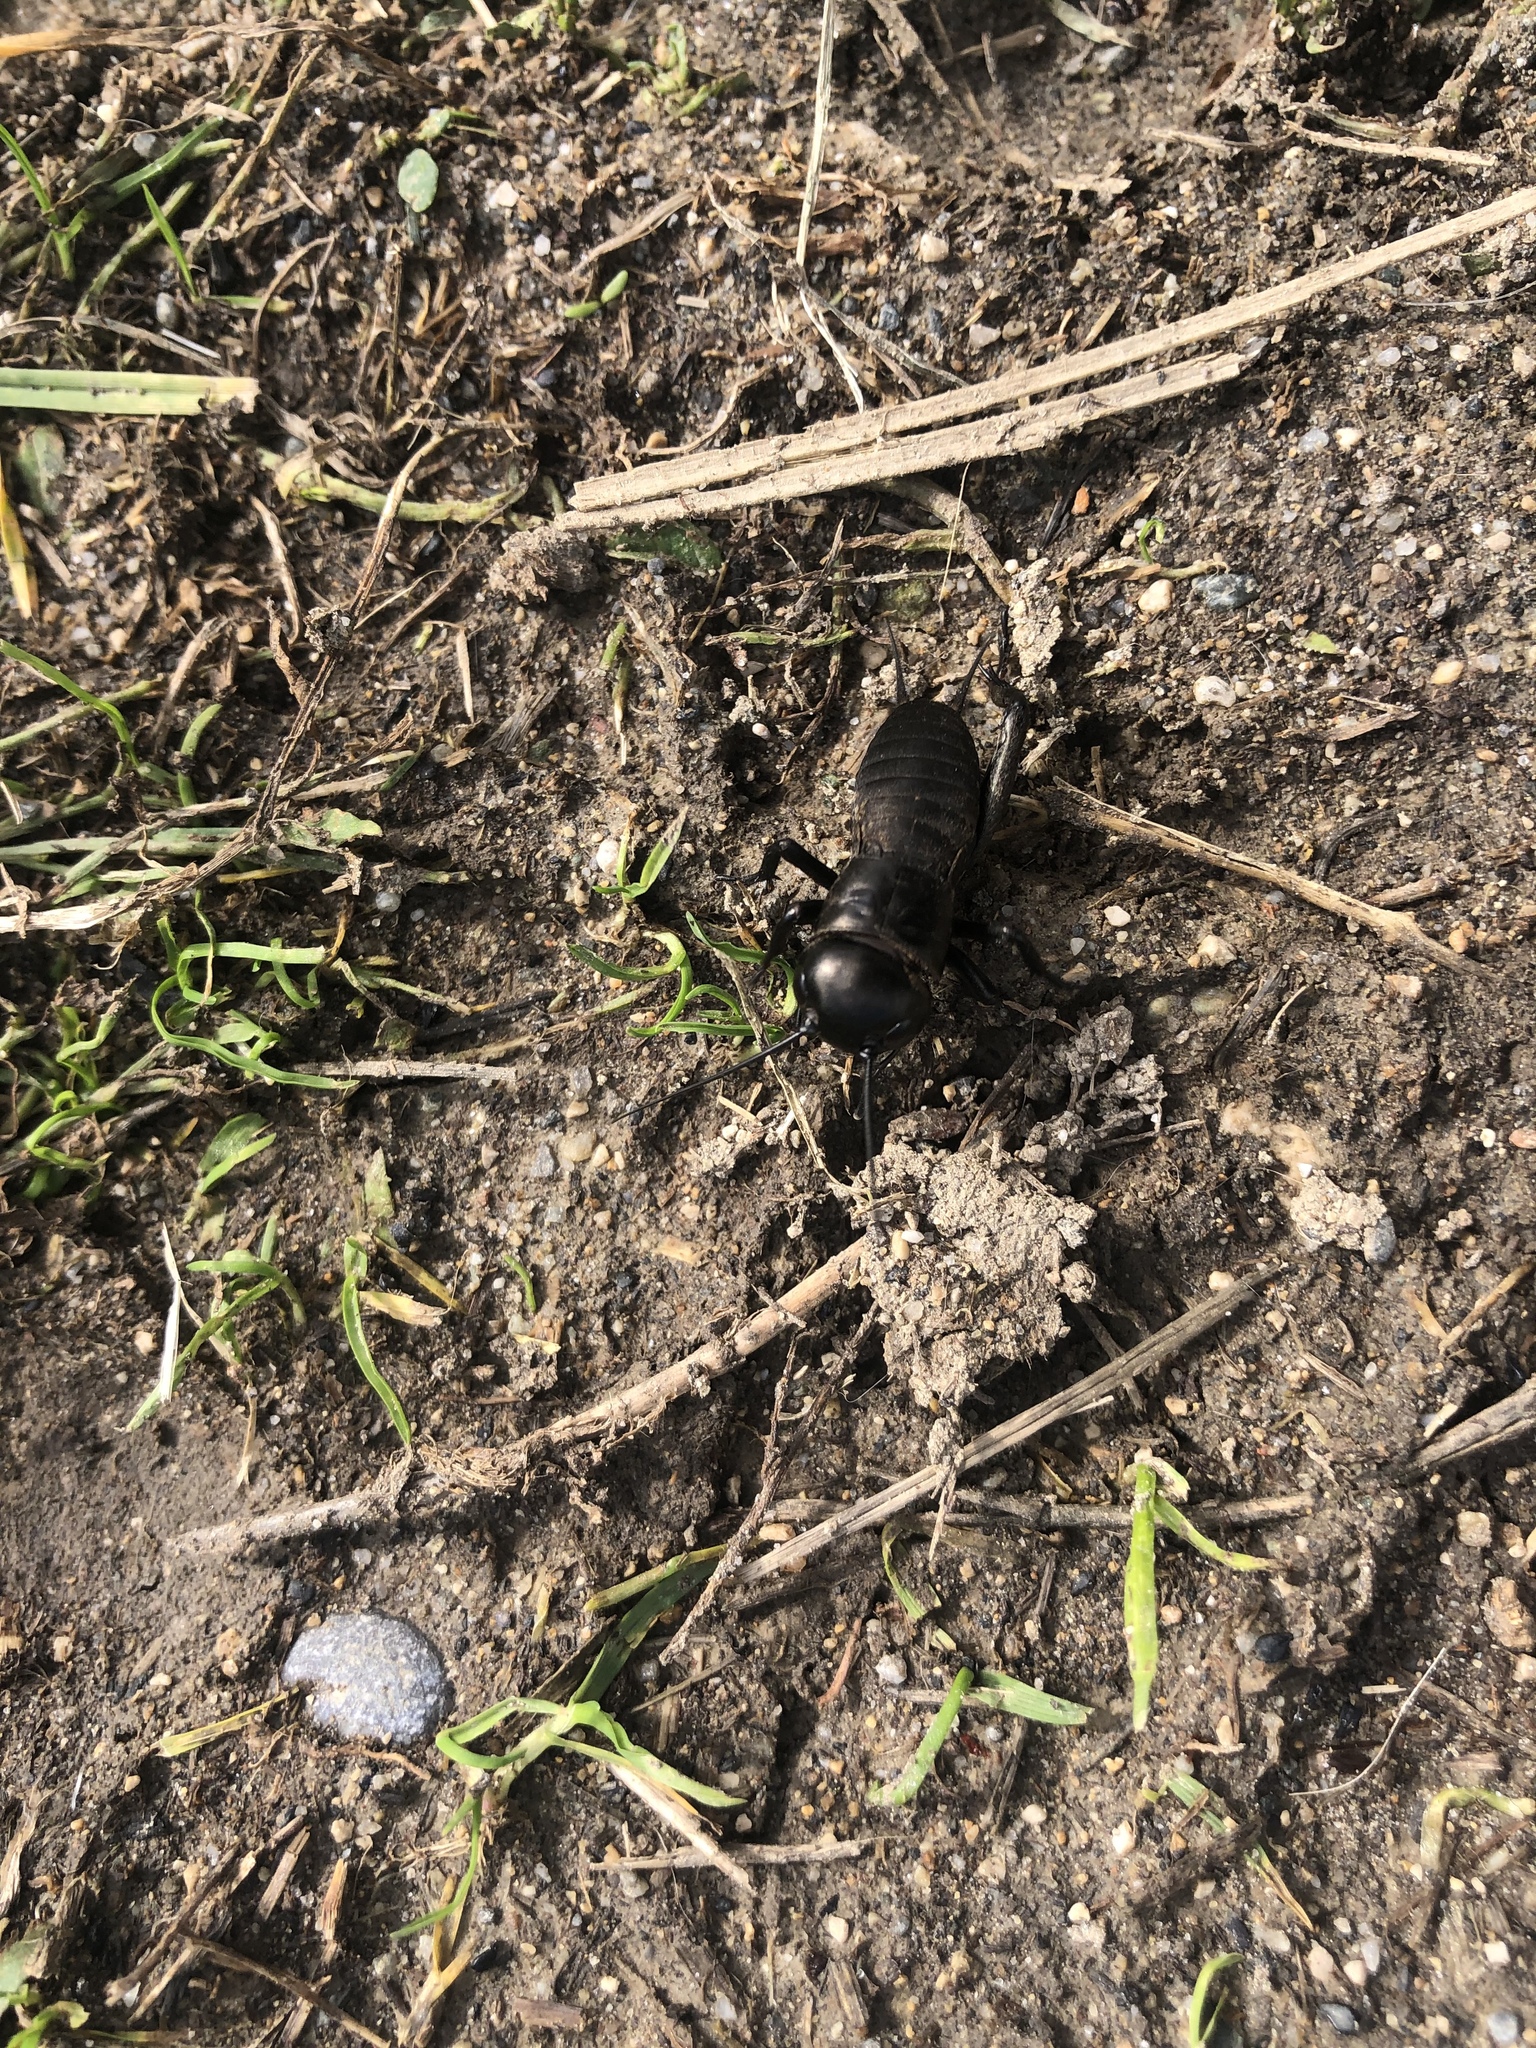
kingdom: Animalia
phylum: Arthropoda
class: Insecta
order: Orthoptera
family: Gryllidae
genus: Gryllus
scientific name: Gryllus campestris
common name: Field cricket
